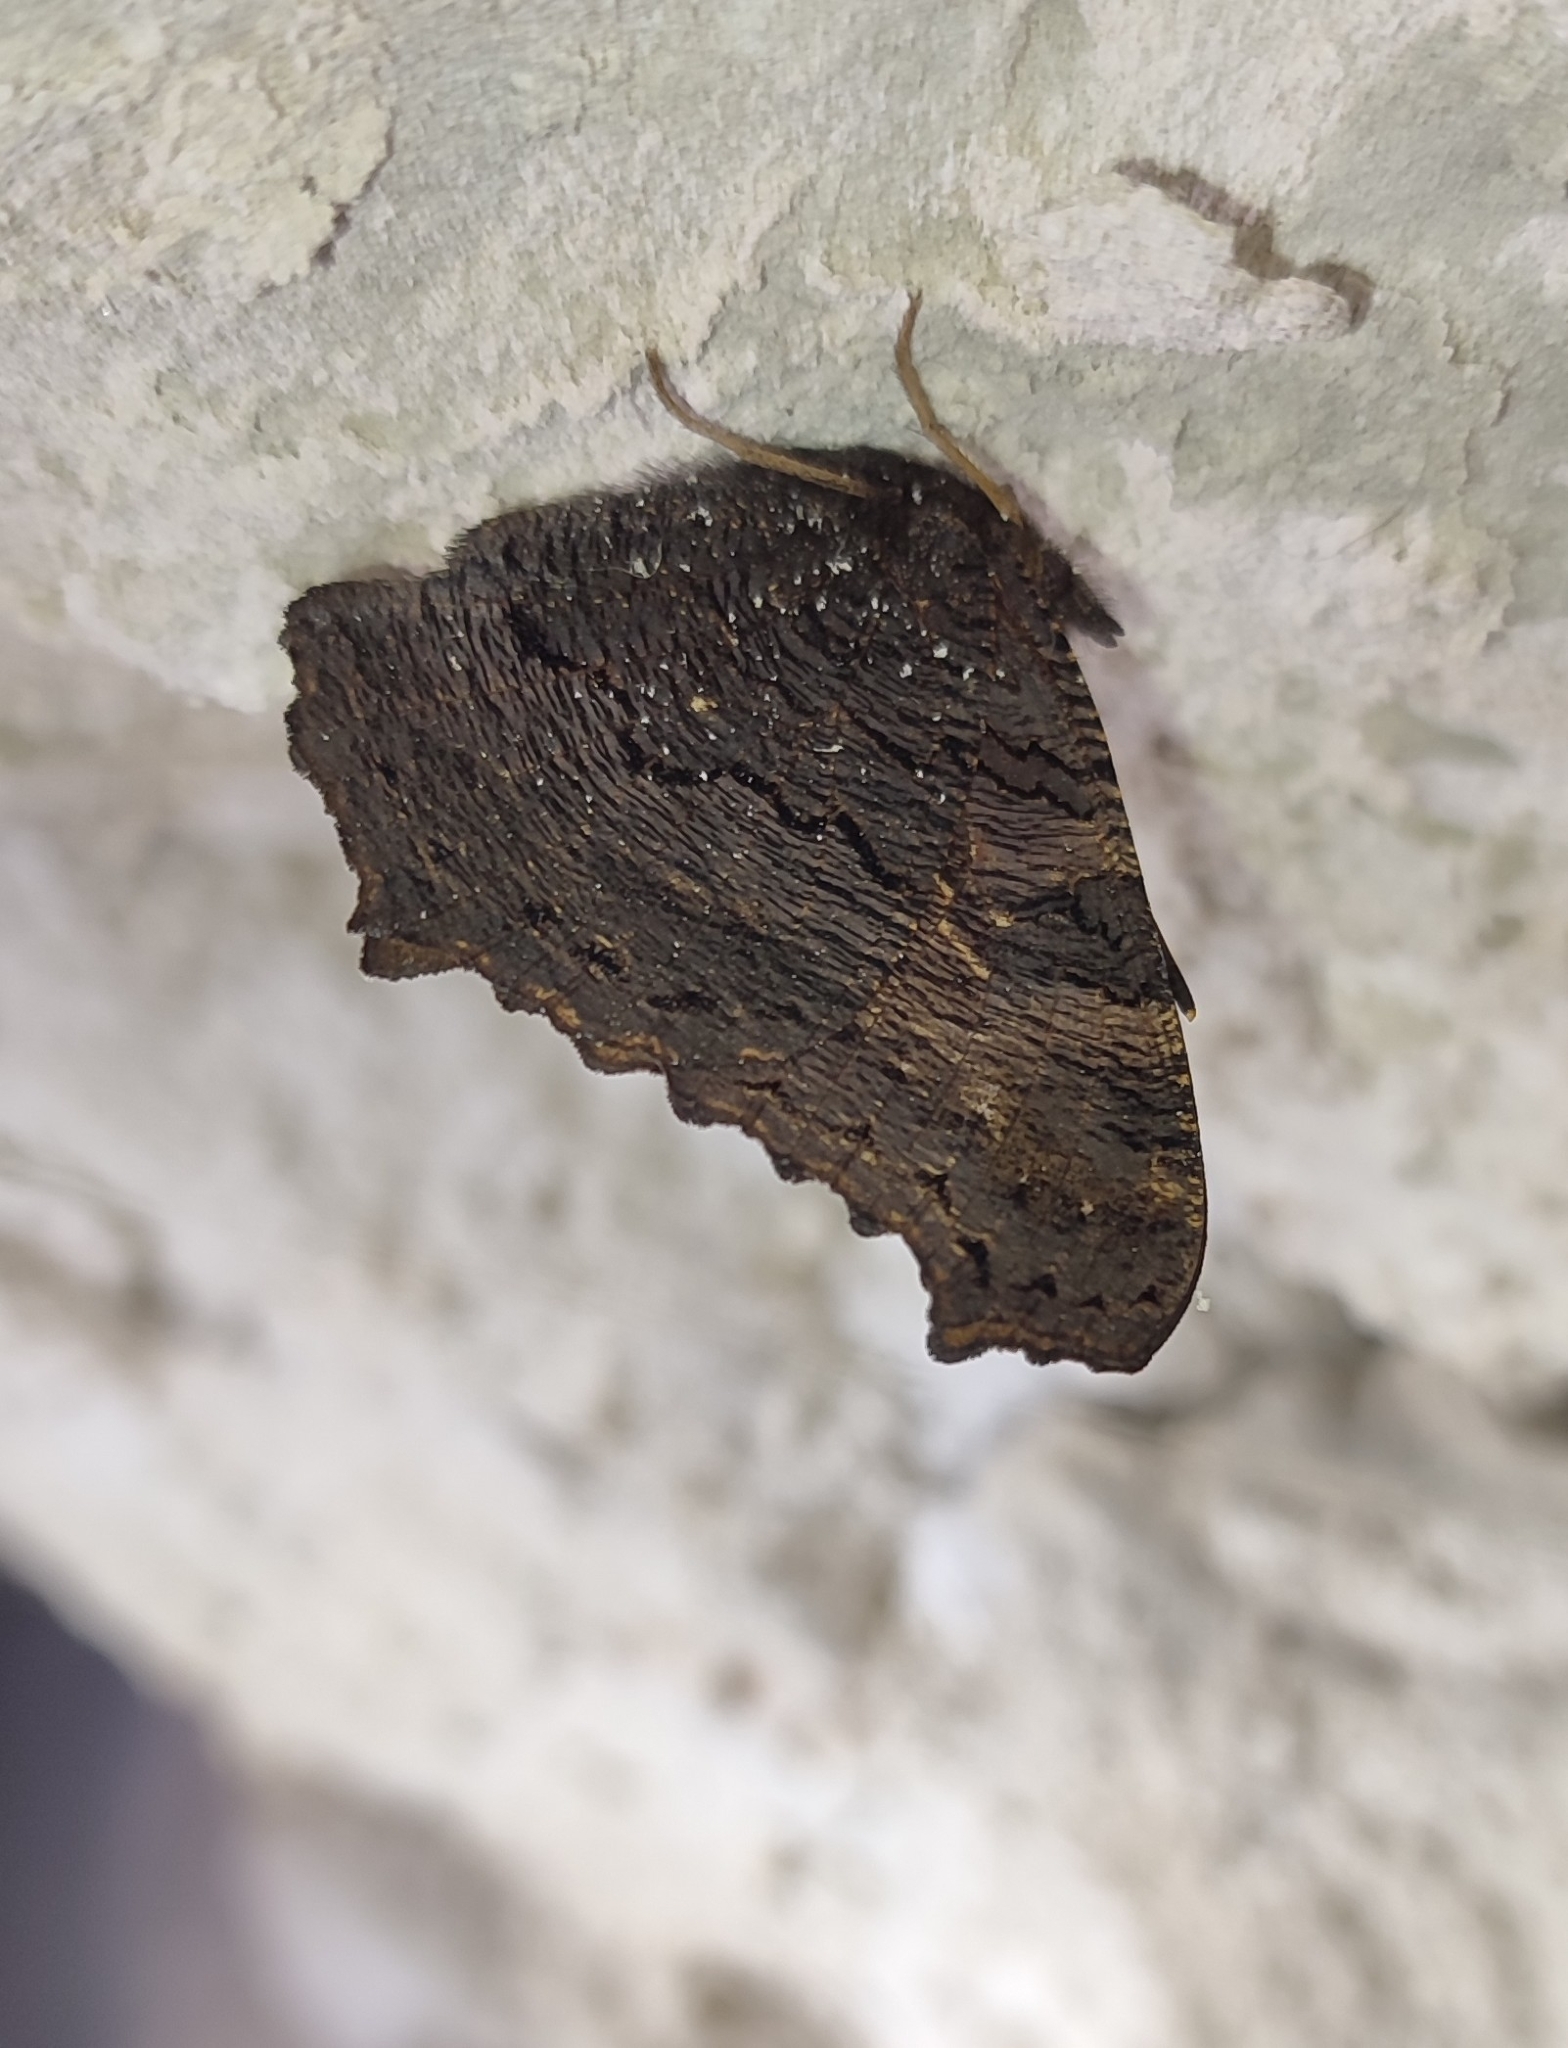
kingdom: Animalia
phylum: Arthropoda
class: Insecta
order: Lepidoptera
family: Nymphalidae
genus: Aglais
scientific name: Aglais io
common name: Peacock
